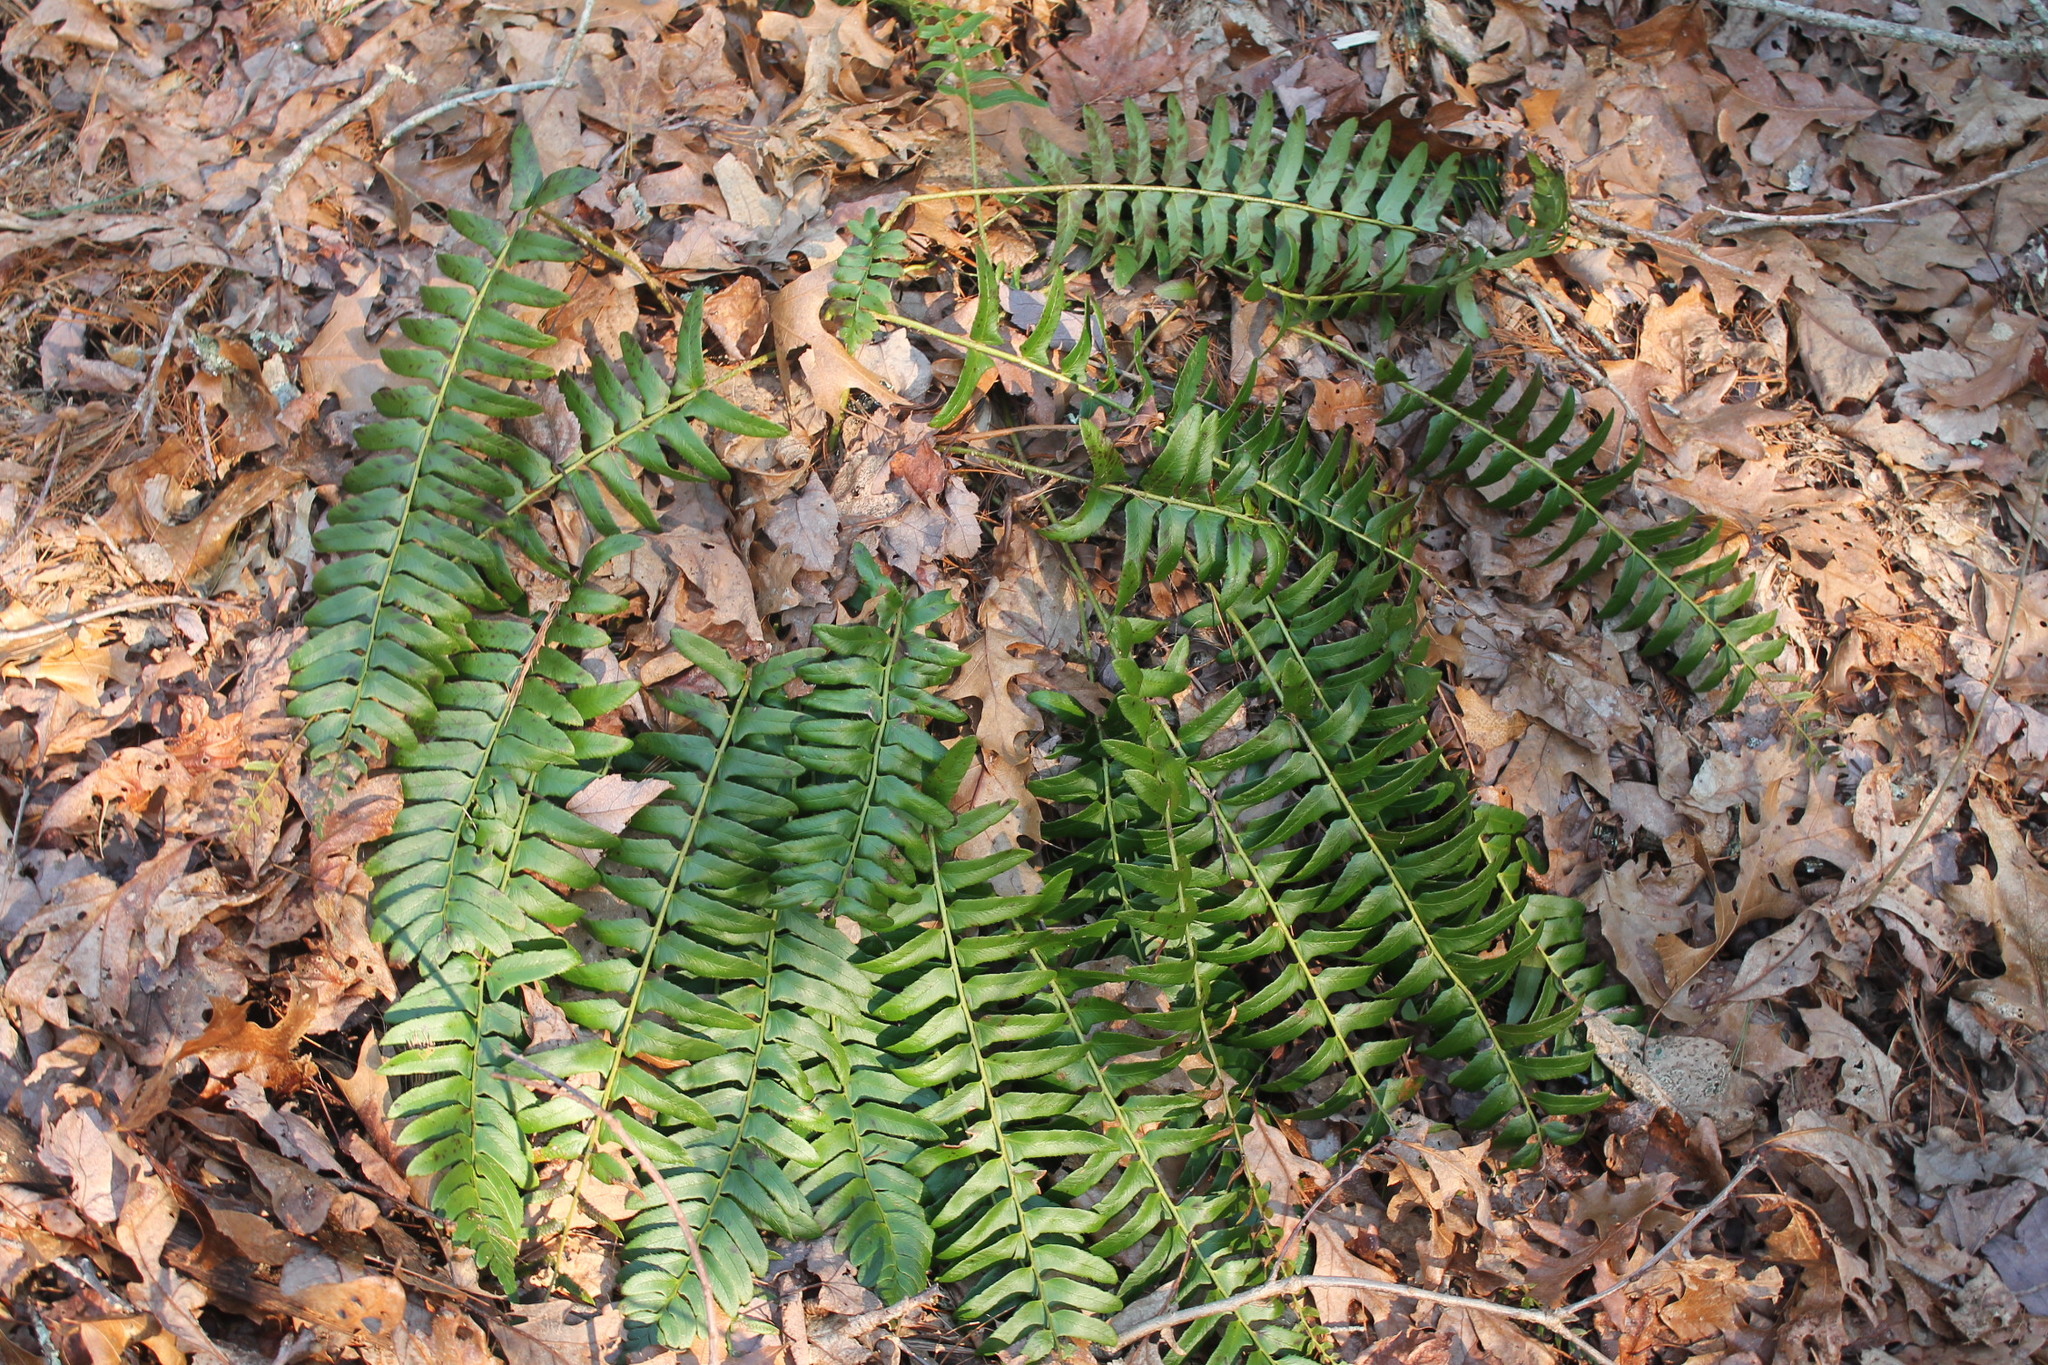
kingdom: Plantae
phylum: Tracheophyta
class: Polypodiopsida
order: Polypodiales
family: Dryopteridaceae
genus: Polystichum
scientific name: Polystichum acrostichoides
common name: Christmas fern
